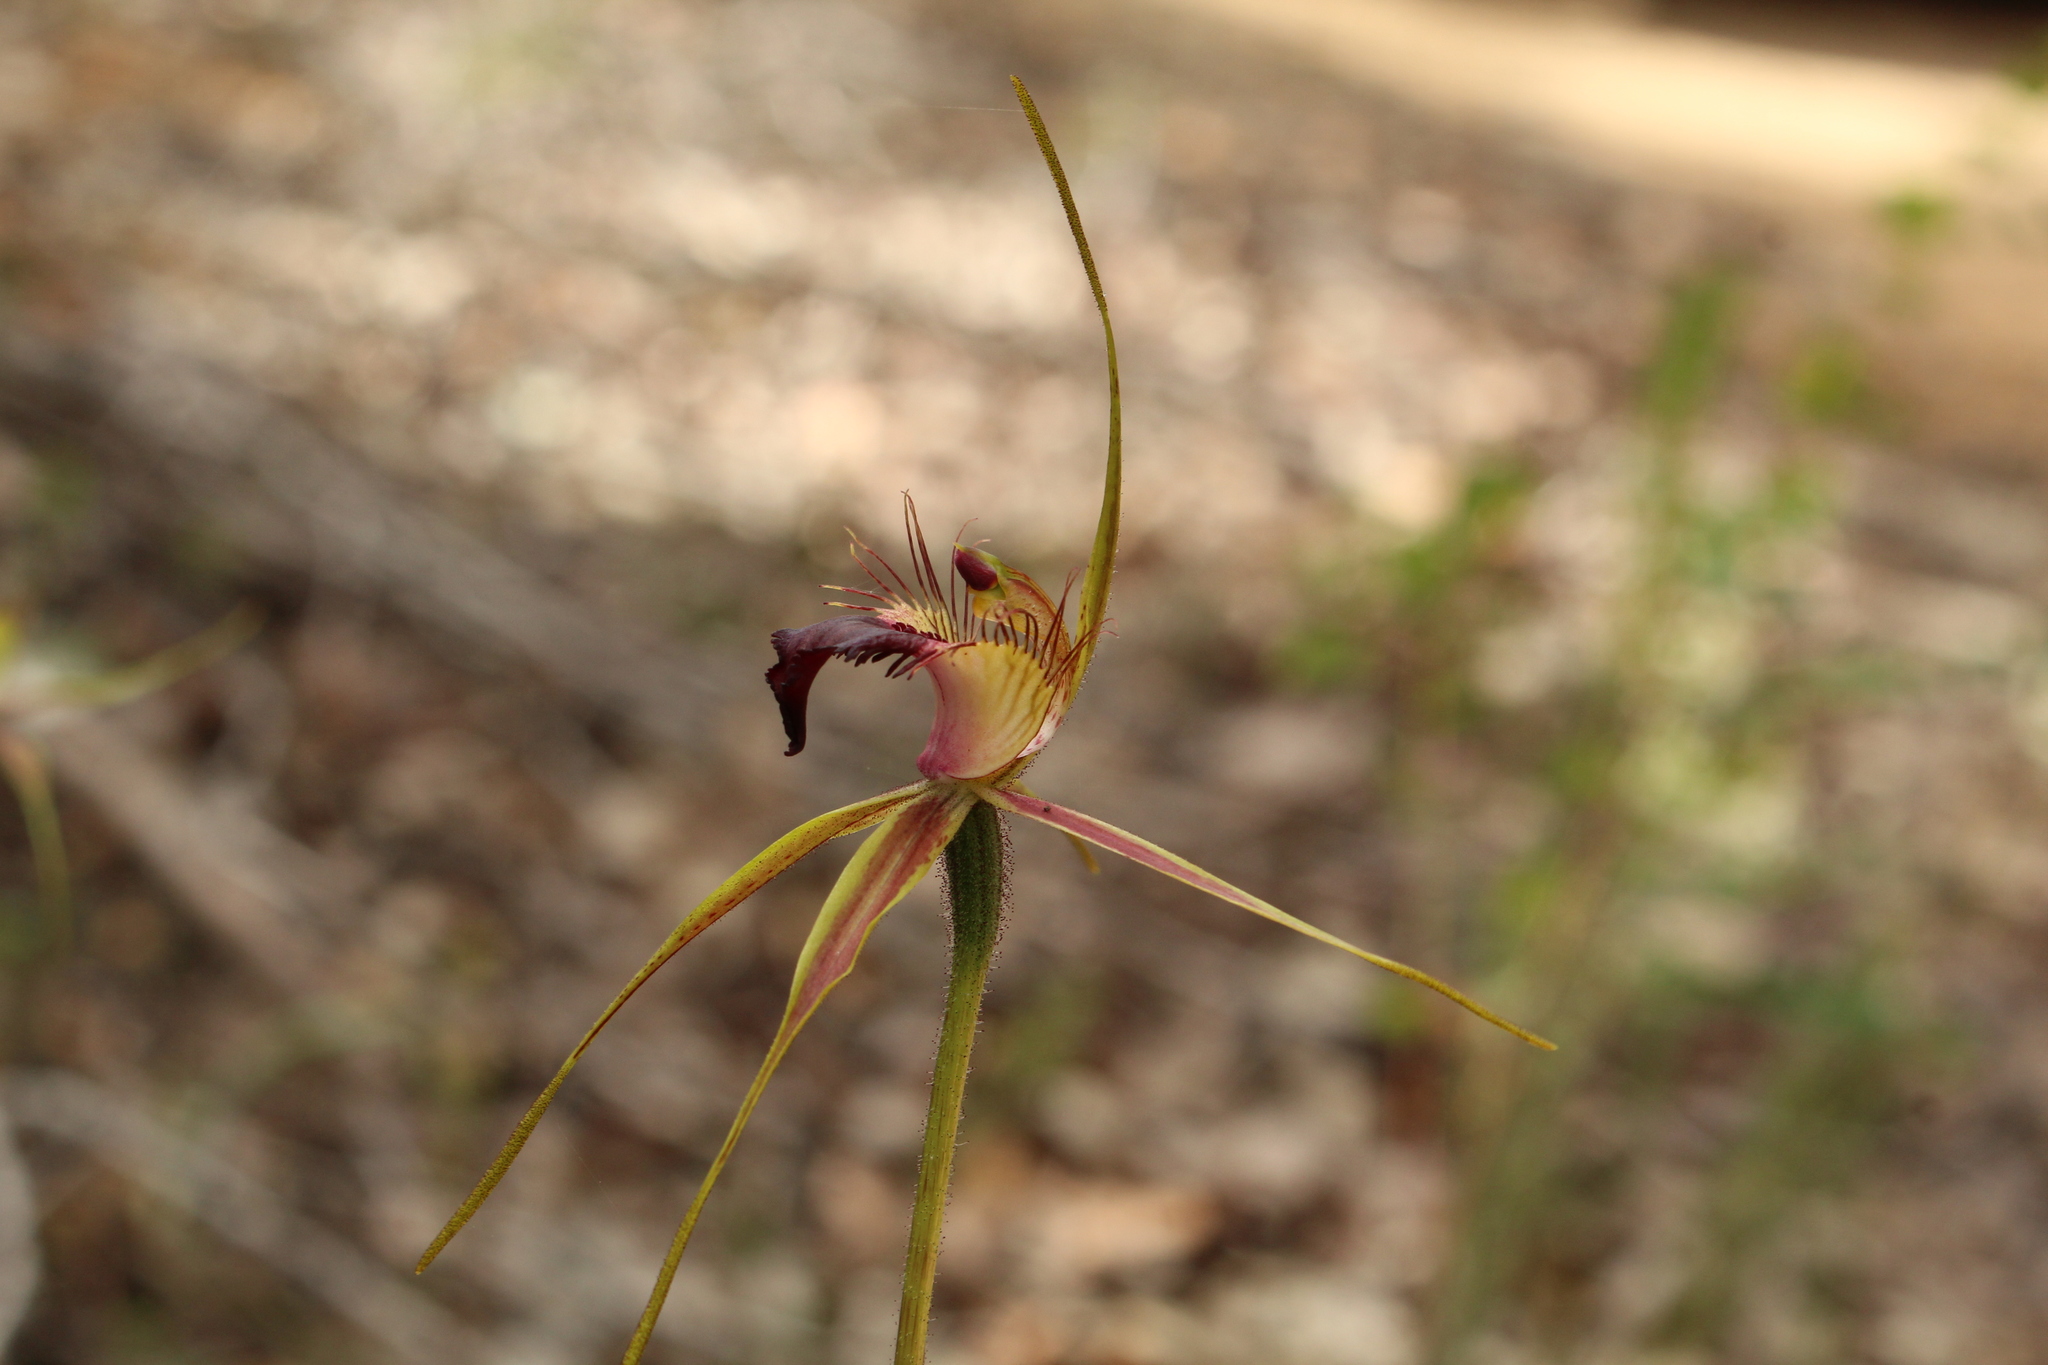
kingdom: Plantae
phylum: Tracheophyta
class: Liliopsida
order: Asparagales
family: Orchidaceae
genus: Caladenia
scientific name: Caladenia brownii
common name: Kari spider orchid
